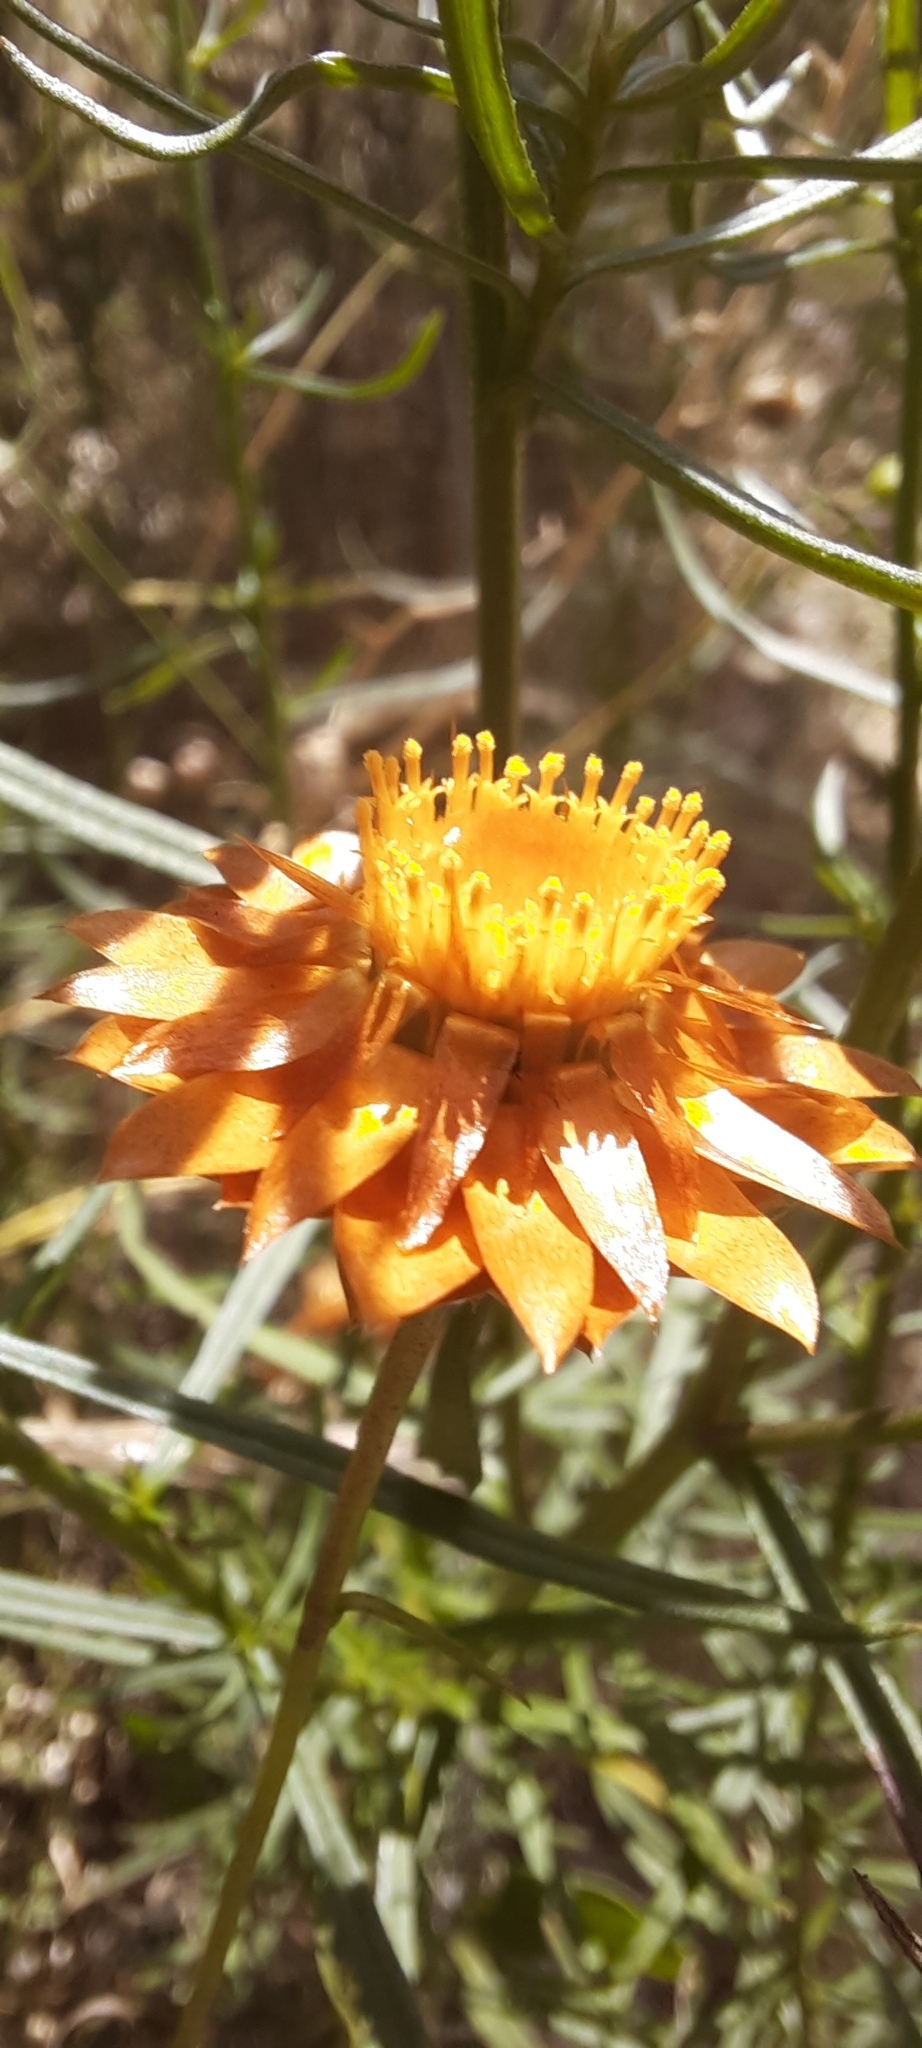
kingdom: Plantae
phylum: Tracheophyta
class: Magnoliopsida
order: Asterales
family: Asteraceae
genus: Xerochrysum
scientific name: Xerochrysum viscosum
